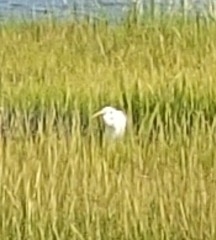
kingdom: Animalia
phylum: Chordata
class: Aves
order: Pelecaniformes
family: Ardeidae
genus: Ardea
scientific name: Ardea alba
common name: Great egret
